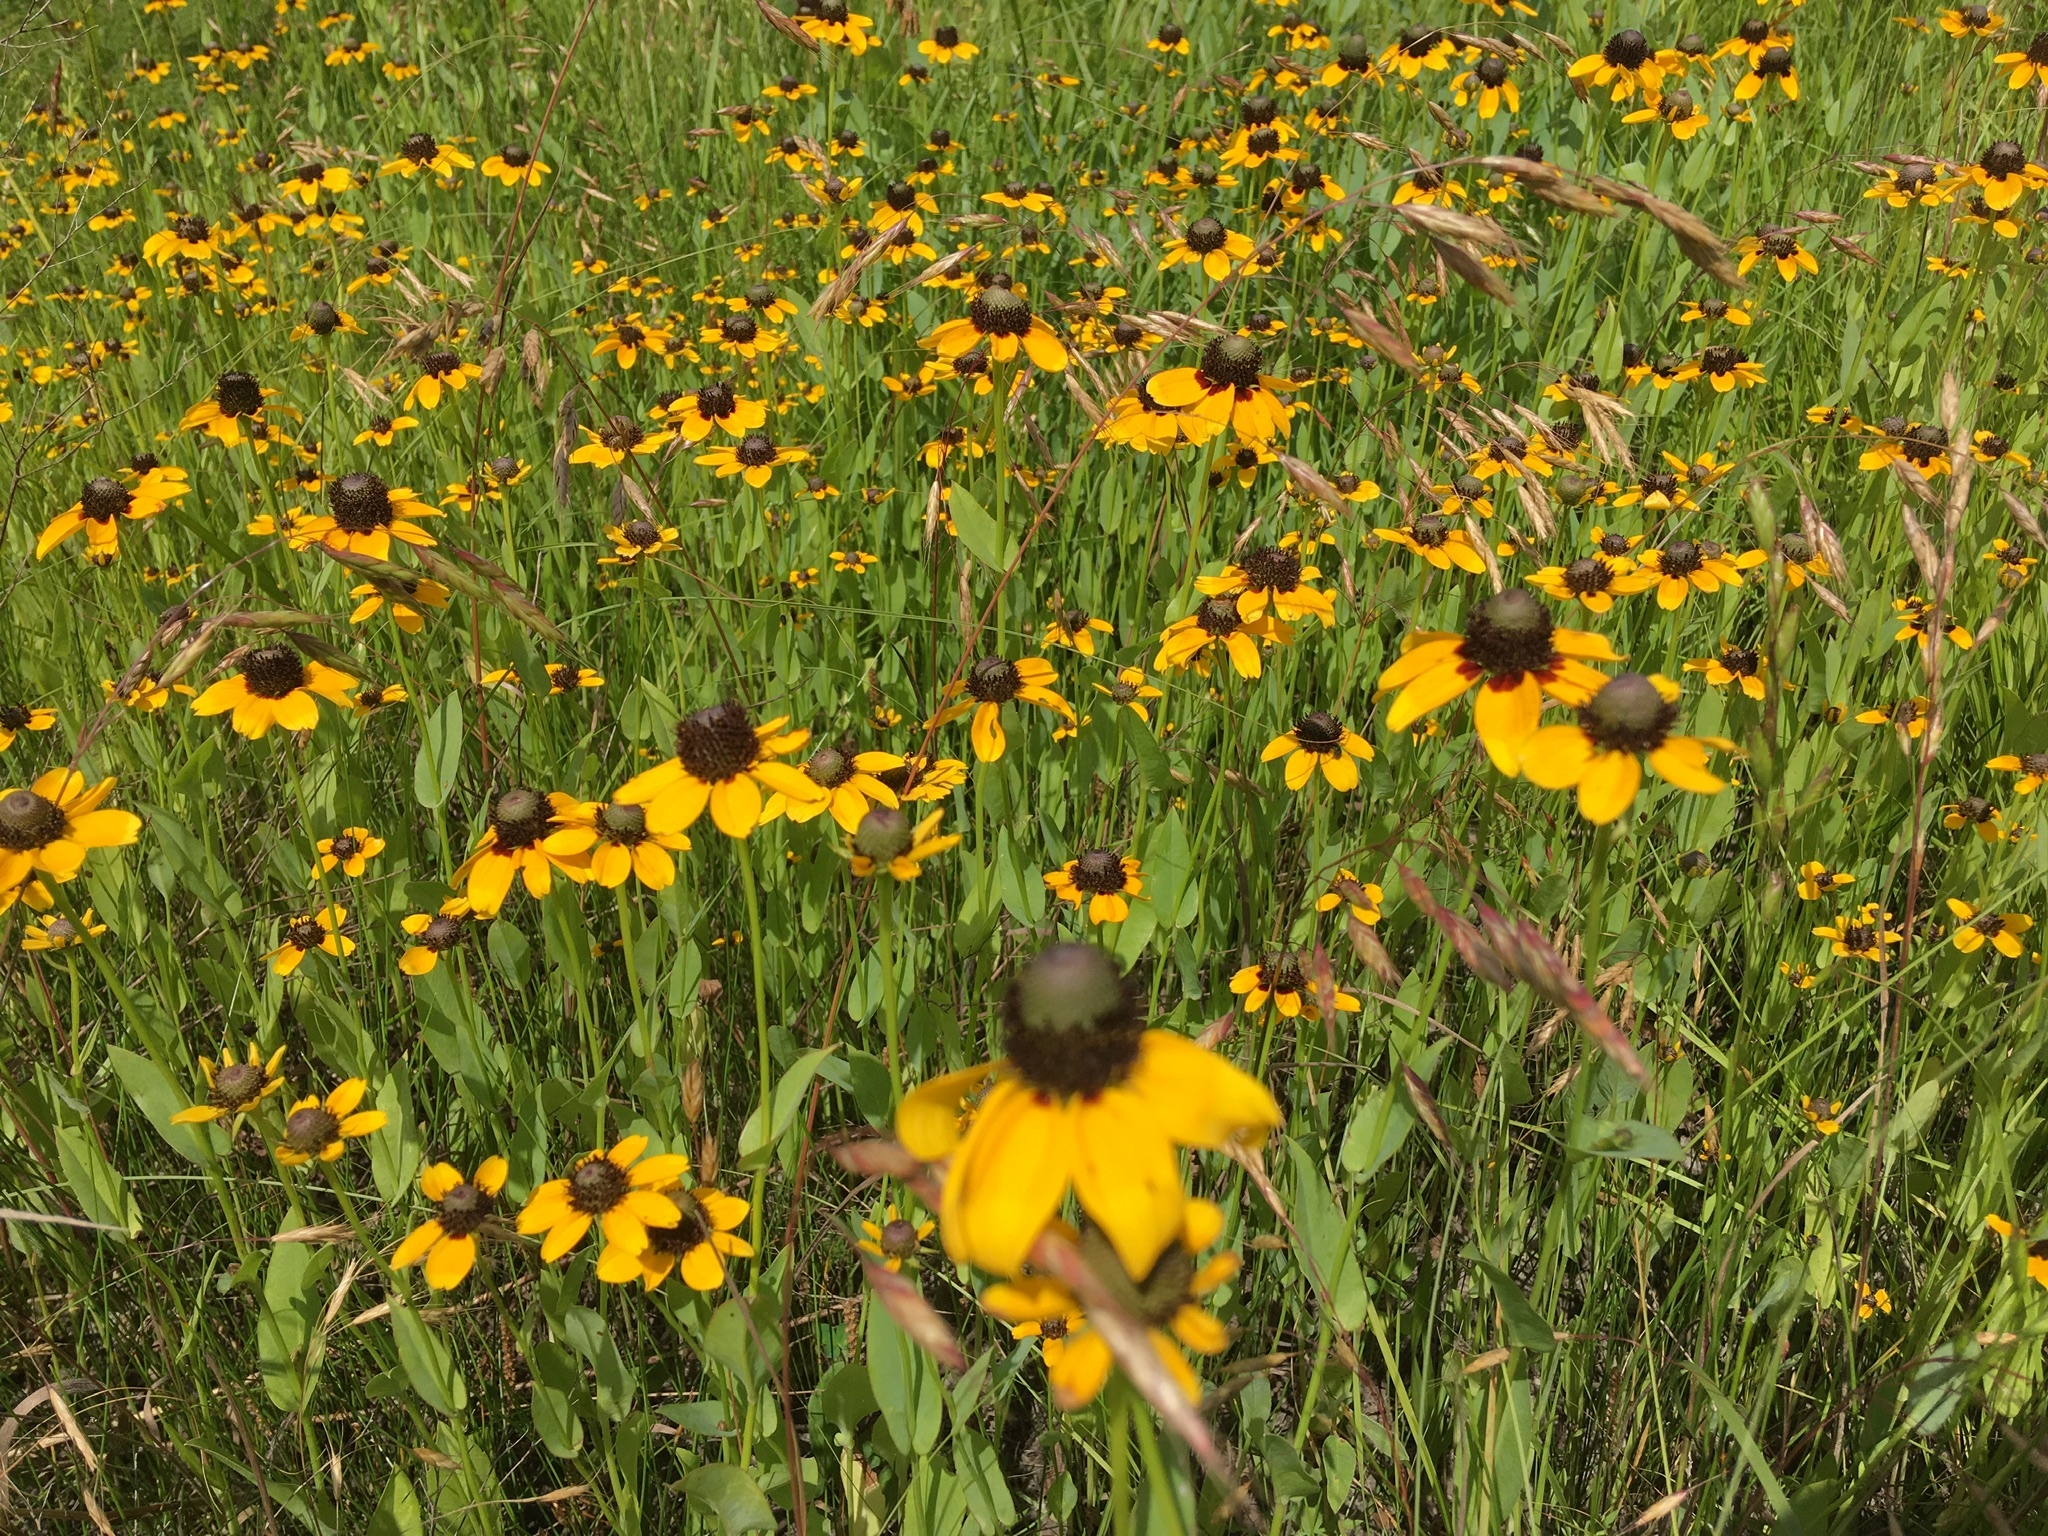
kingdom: Plantae
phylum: Tracheophyta
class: Magnoliopsida
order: Asterales
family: Asteraceae
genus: Rudbeckia
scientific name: Rudbeckia amplexicaulis
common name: Clasping-leaf coneflower
